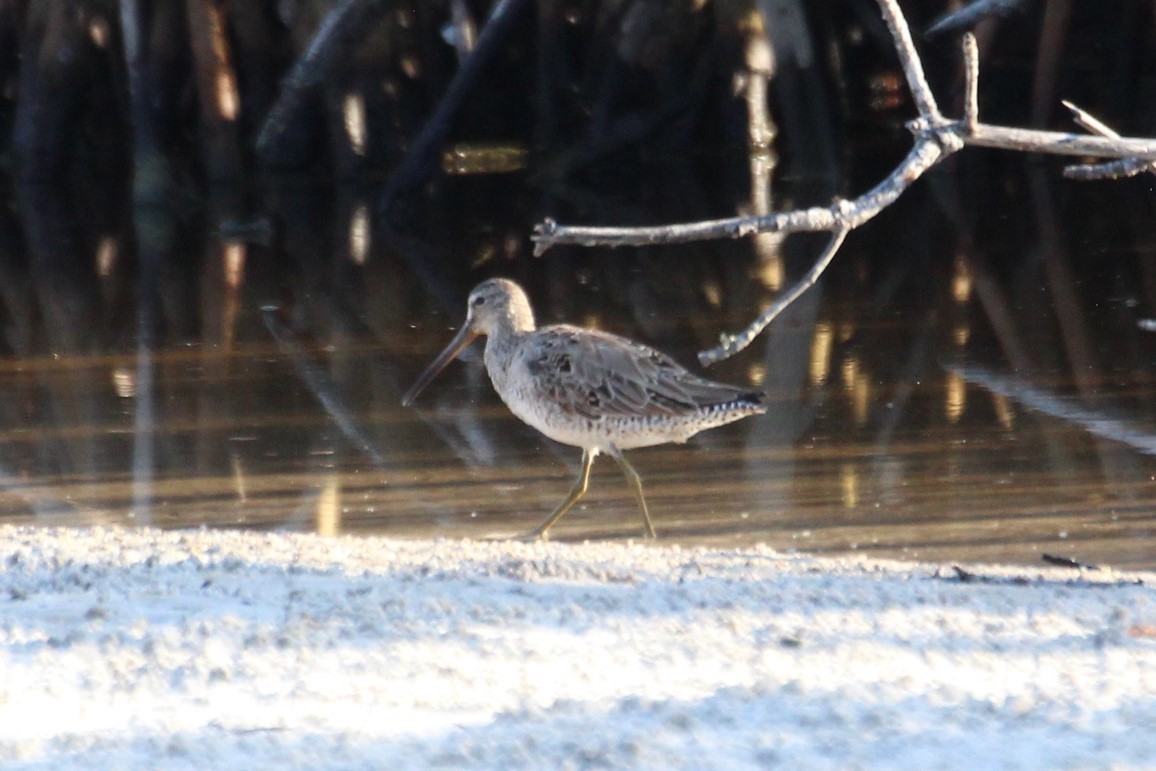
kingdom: Animalia
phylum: Chordata
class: Aves
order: Charadriiformes
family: Scolopacidae
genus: Limnodromus
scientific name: Limnodromus griseus
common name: Short-billed dowitcher
